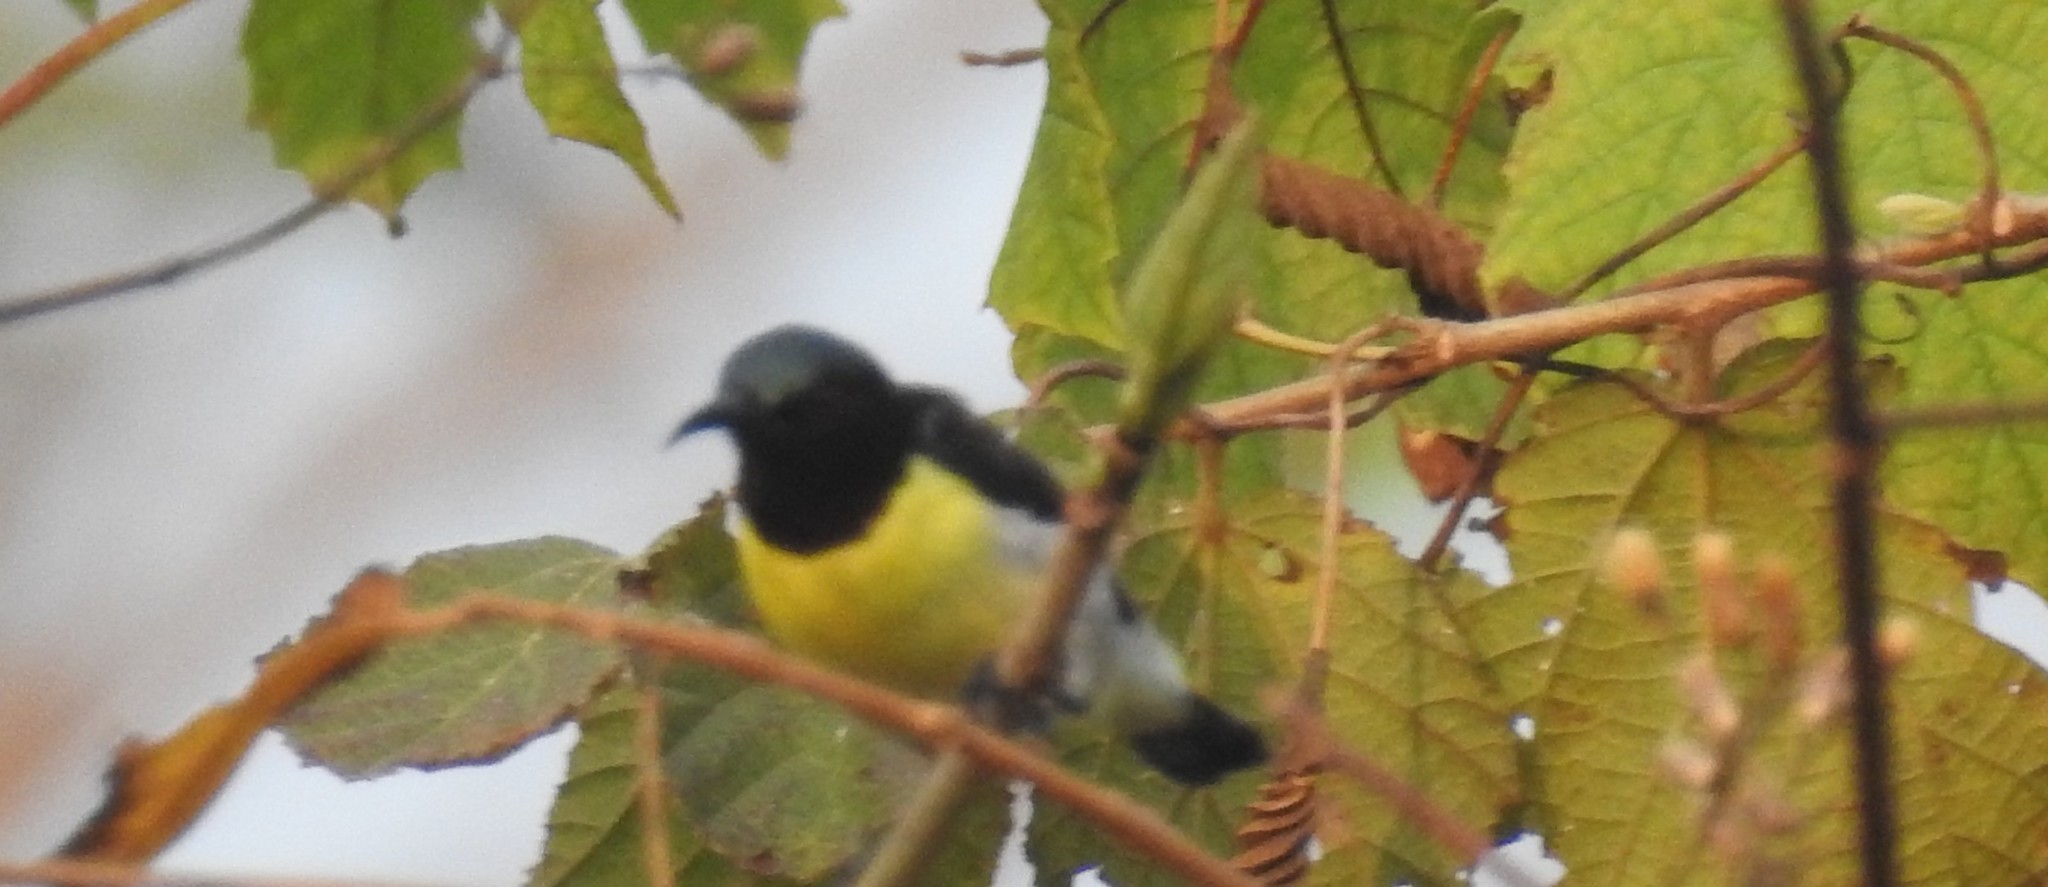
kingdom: Animalia
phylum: Chordata
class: Aves
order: Passeriformes
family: Nectariniidae
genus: Leptocoma
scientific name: Leptocoma zeylonica
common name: Purple-rumped sunbird
